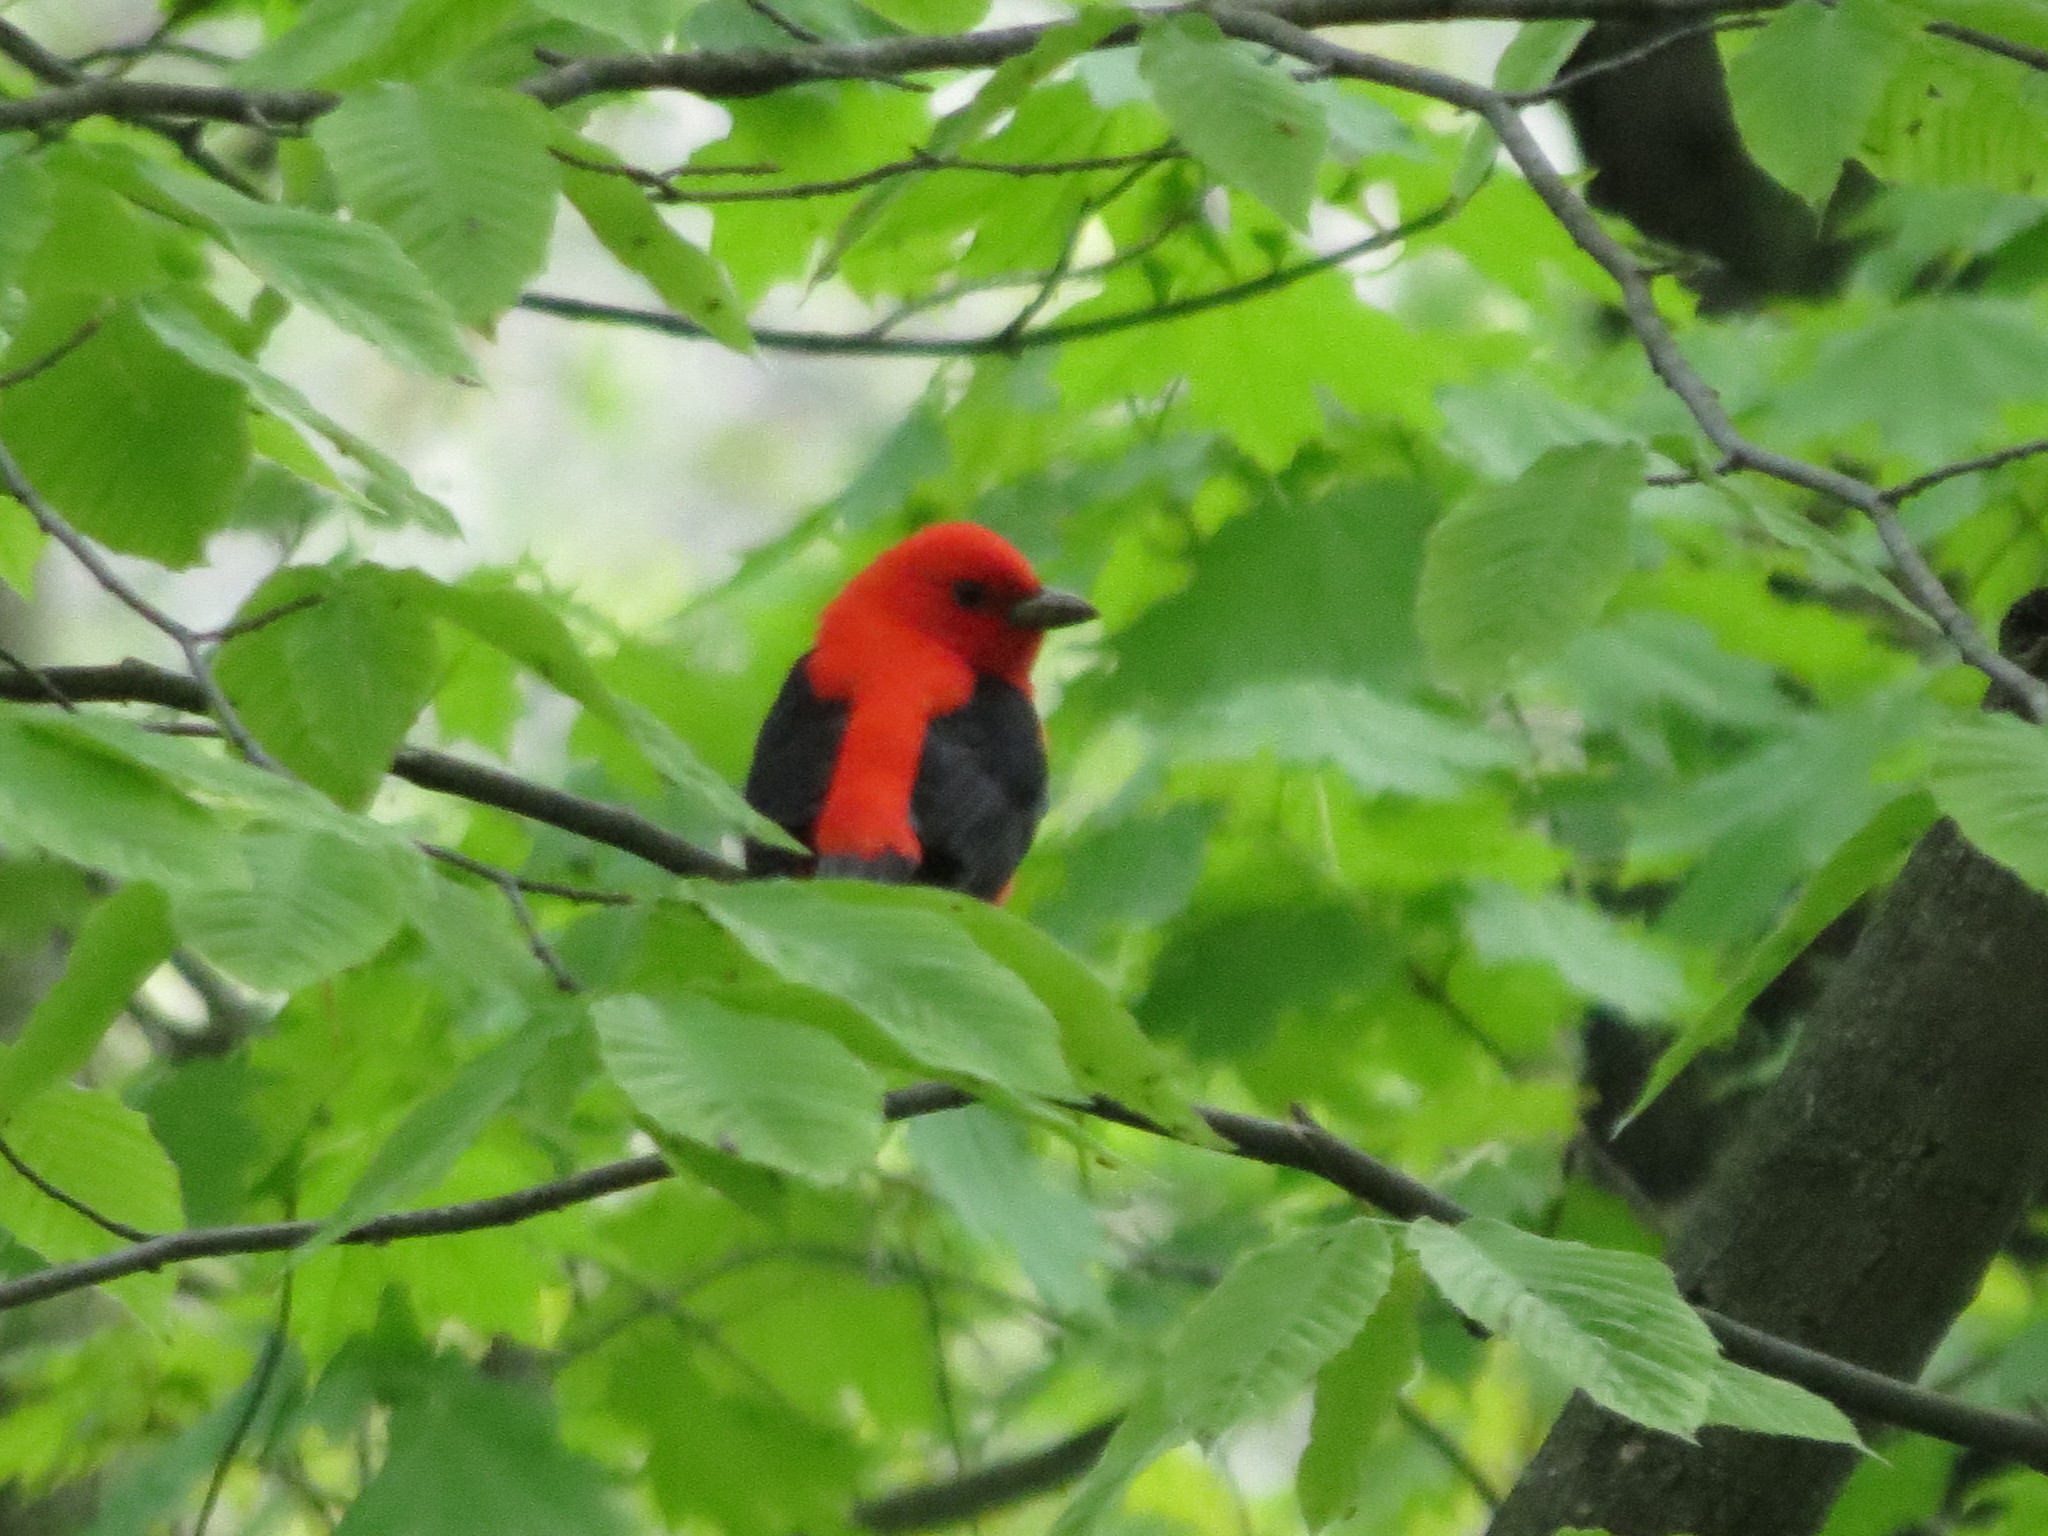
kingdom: Animalia
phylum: Chordata
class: Aves
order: Passeriformes
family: Cardinalidae
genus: Piranga
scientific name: Piranga olivacea
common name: Scarlet tanager
